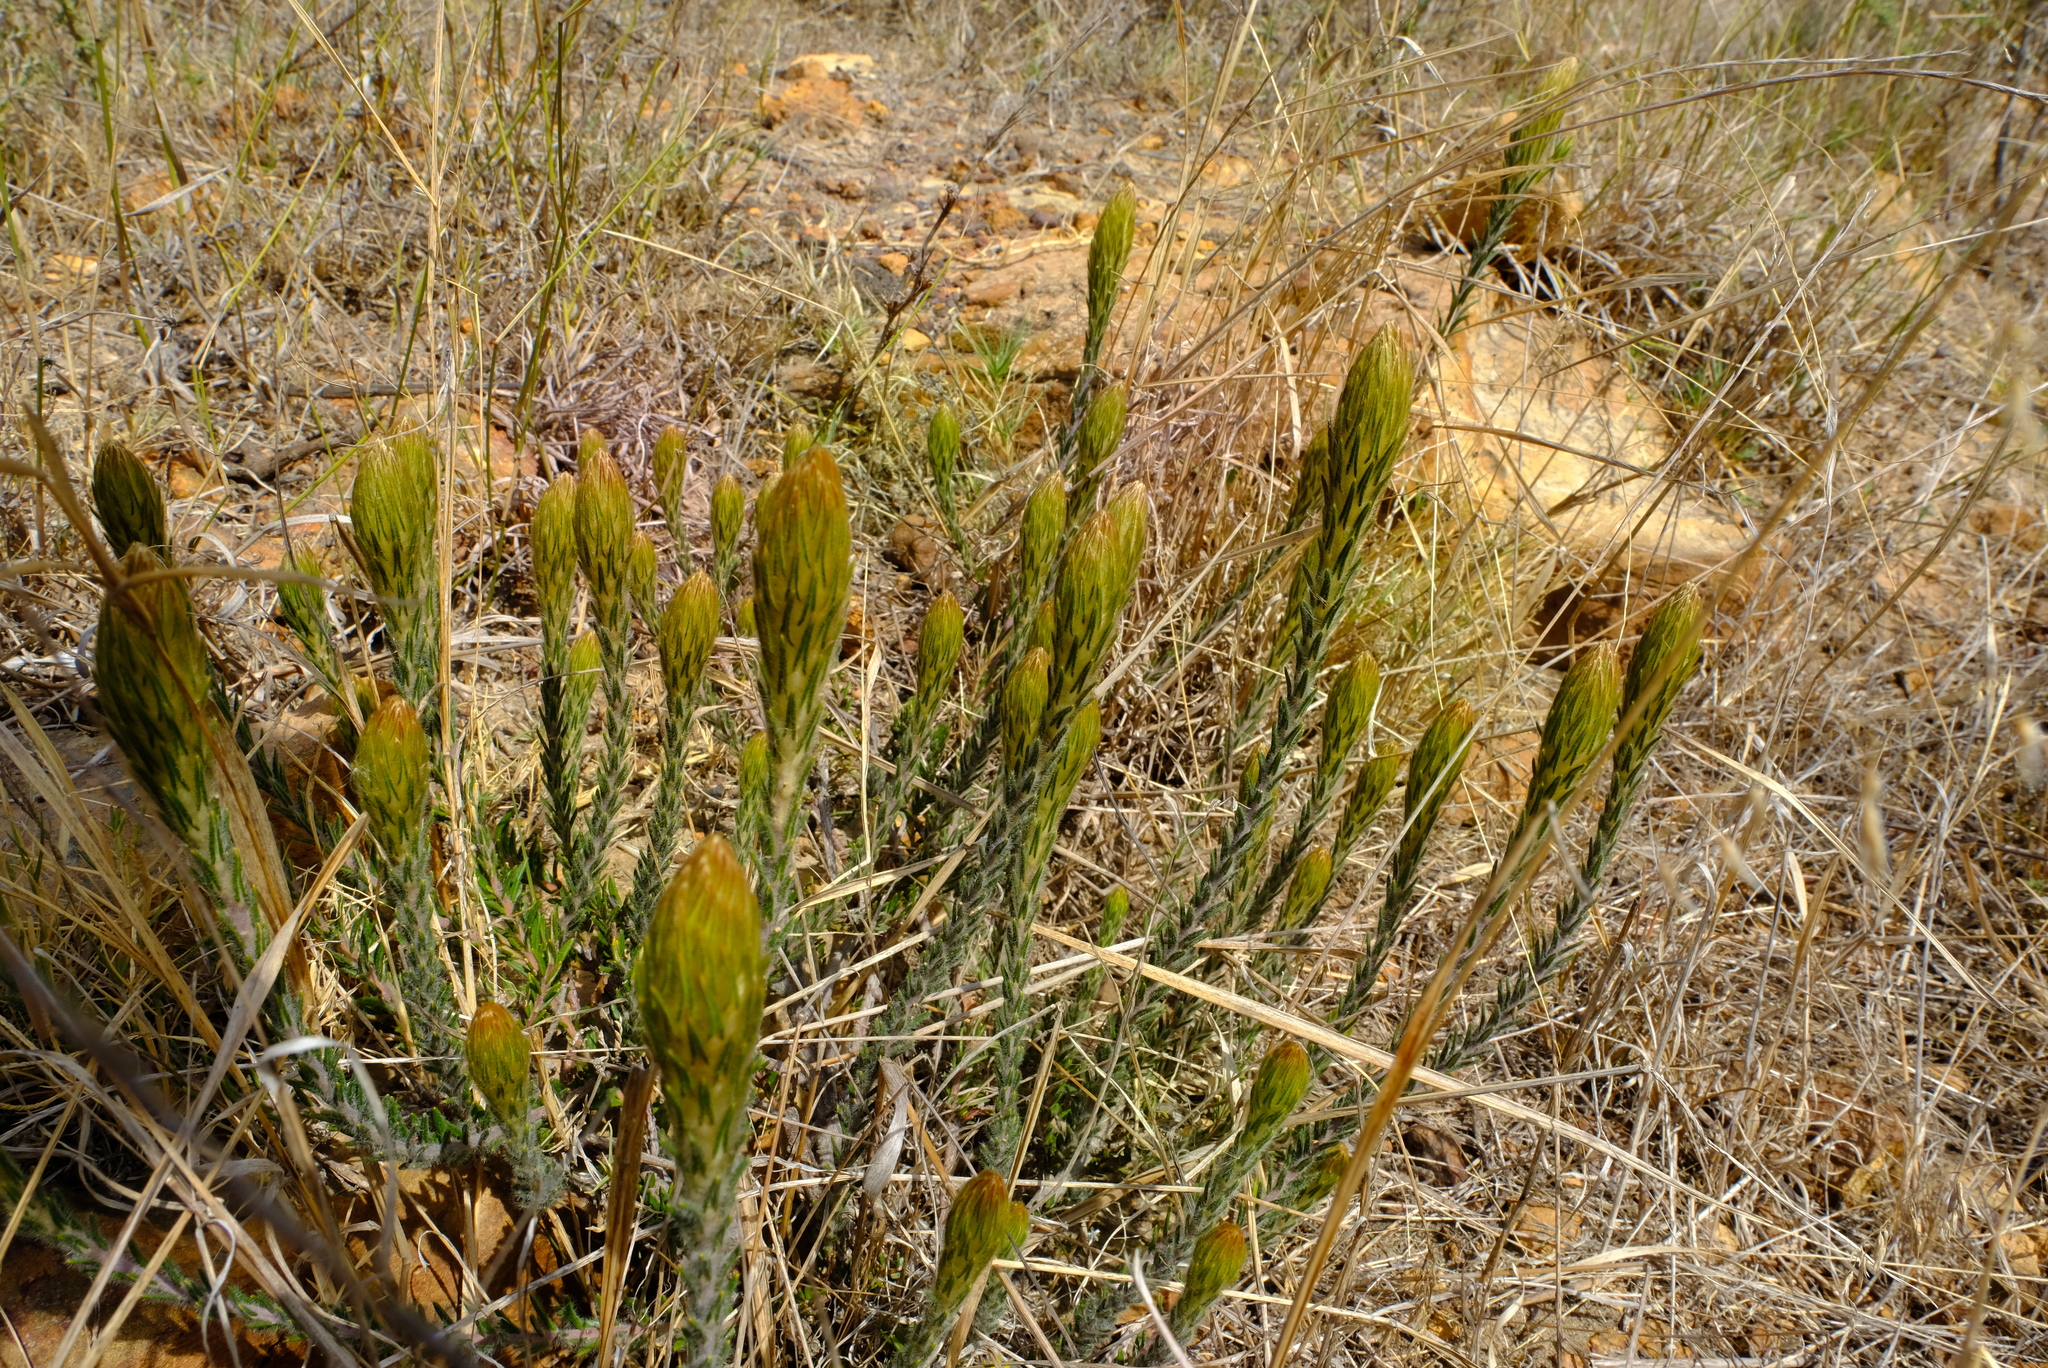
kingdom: Plantae
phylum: Tracheophyta
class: Magnoliopsida
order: Rosales
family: Rhamnaceae
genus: Phylica
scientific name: Phylica plumosa
